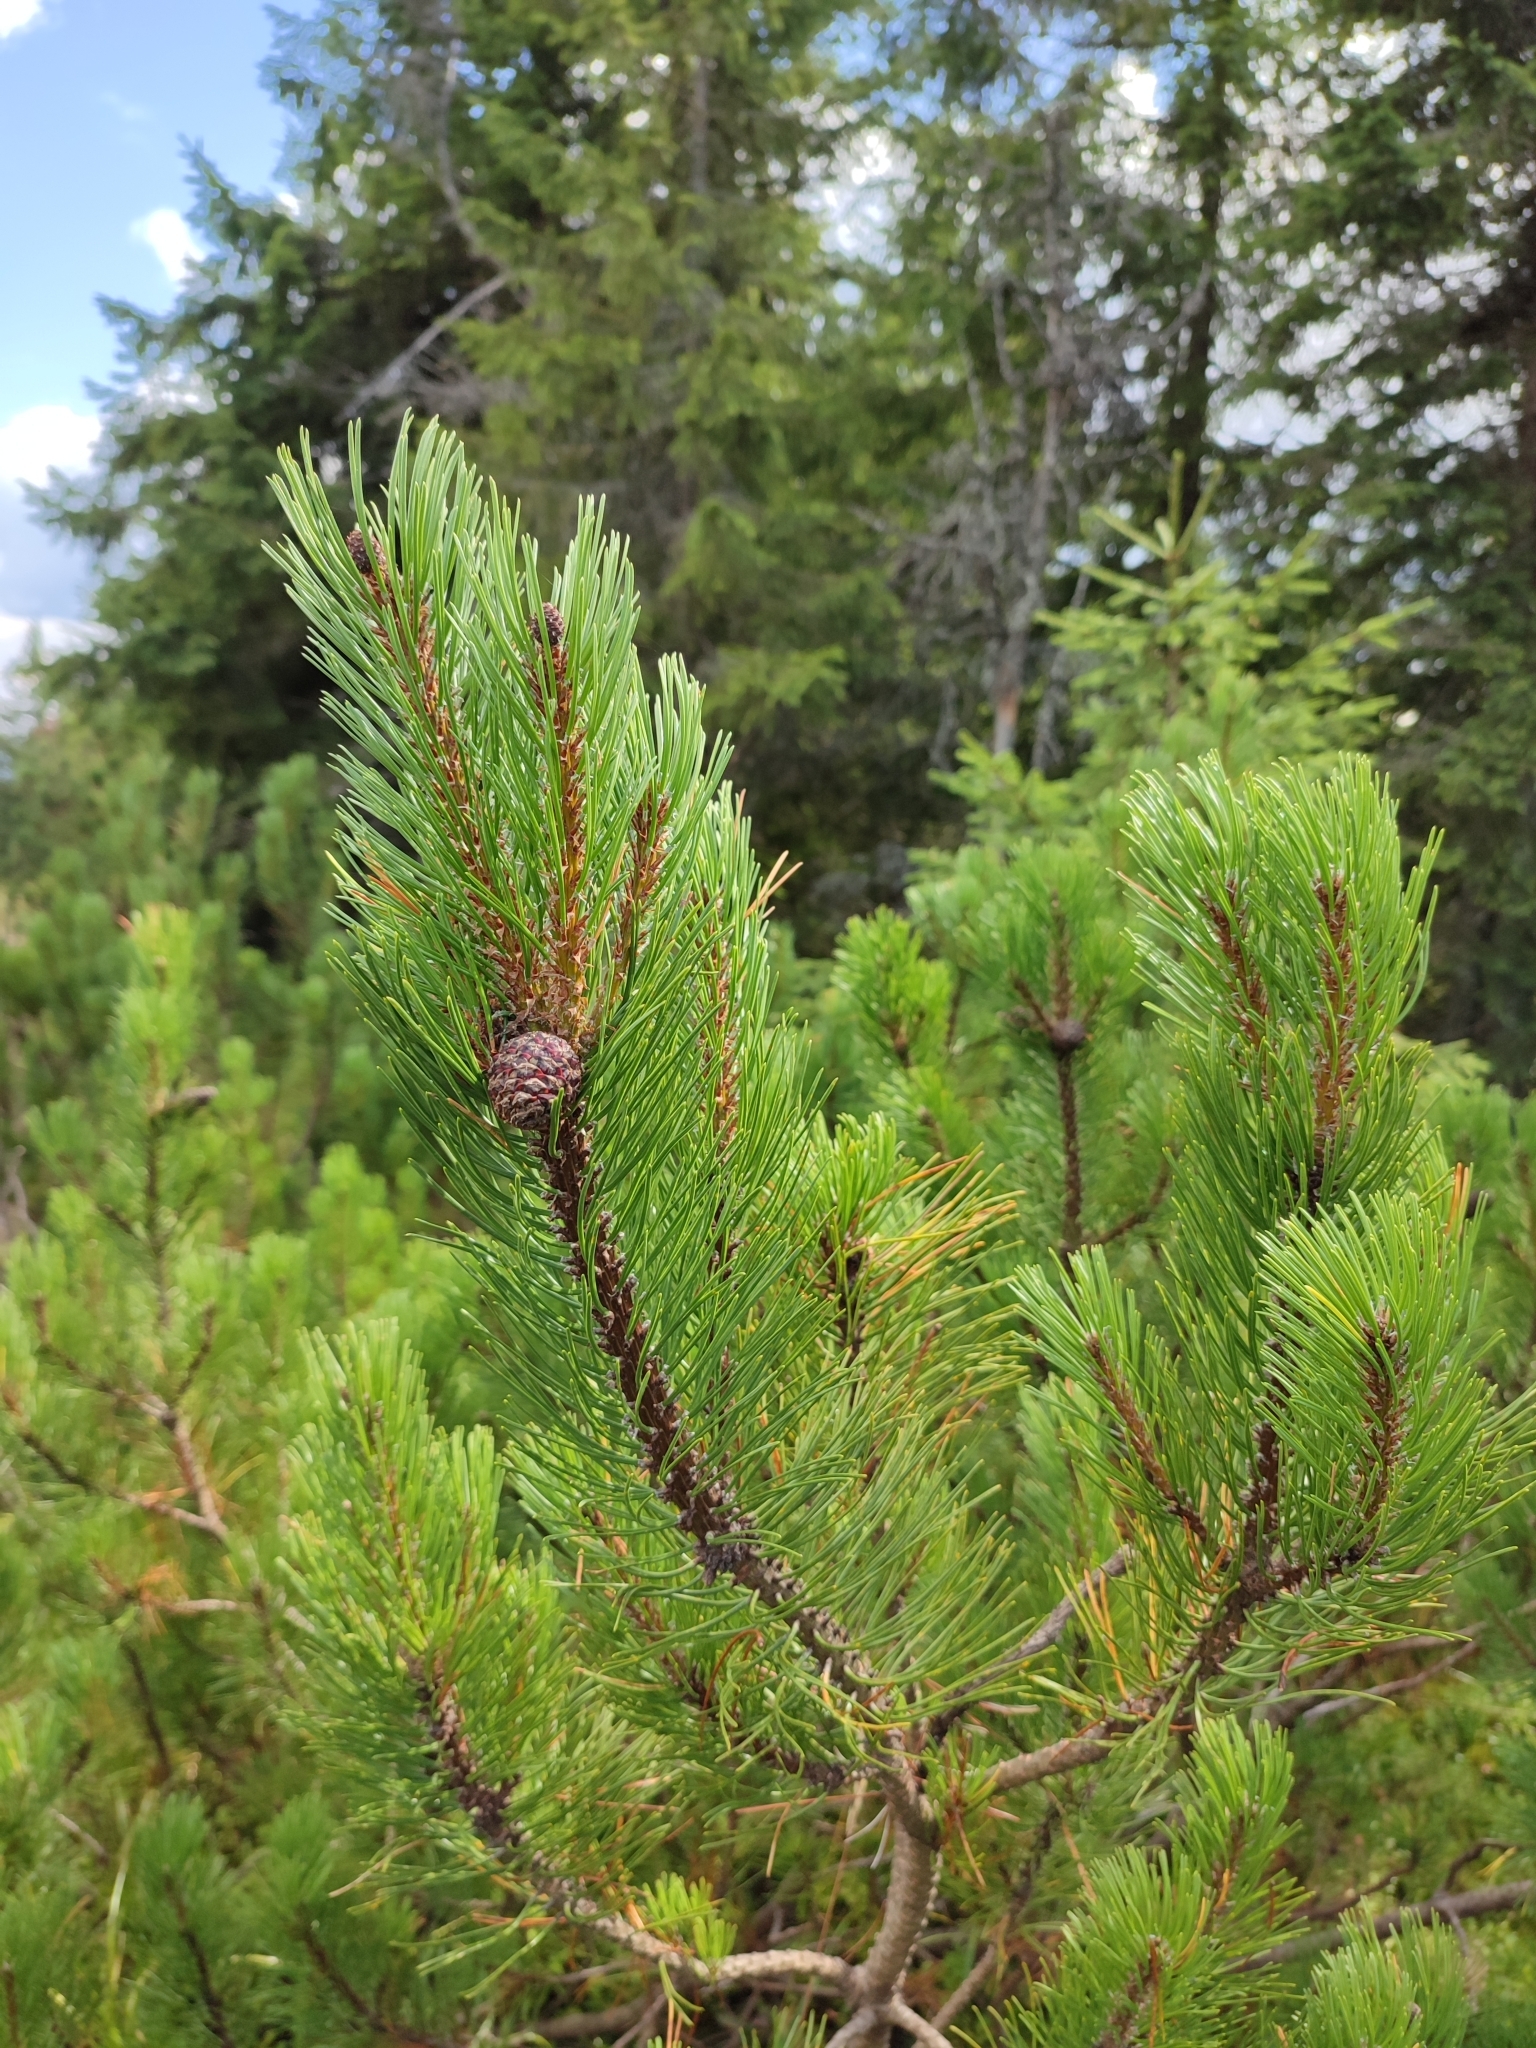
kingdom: Plantae
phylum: Tracheophyta
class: Pinopsida
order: Pinales
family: Pinaceae
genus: Pinus
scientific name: Pinus mugo
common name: Mugo pine
